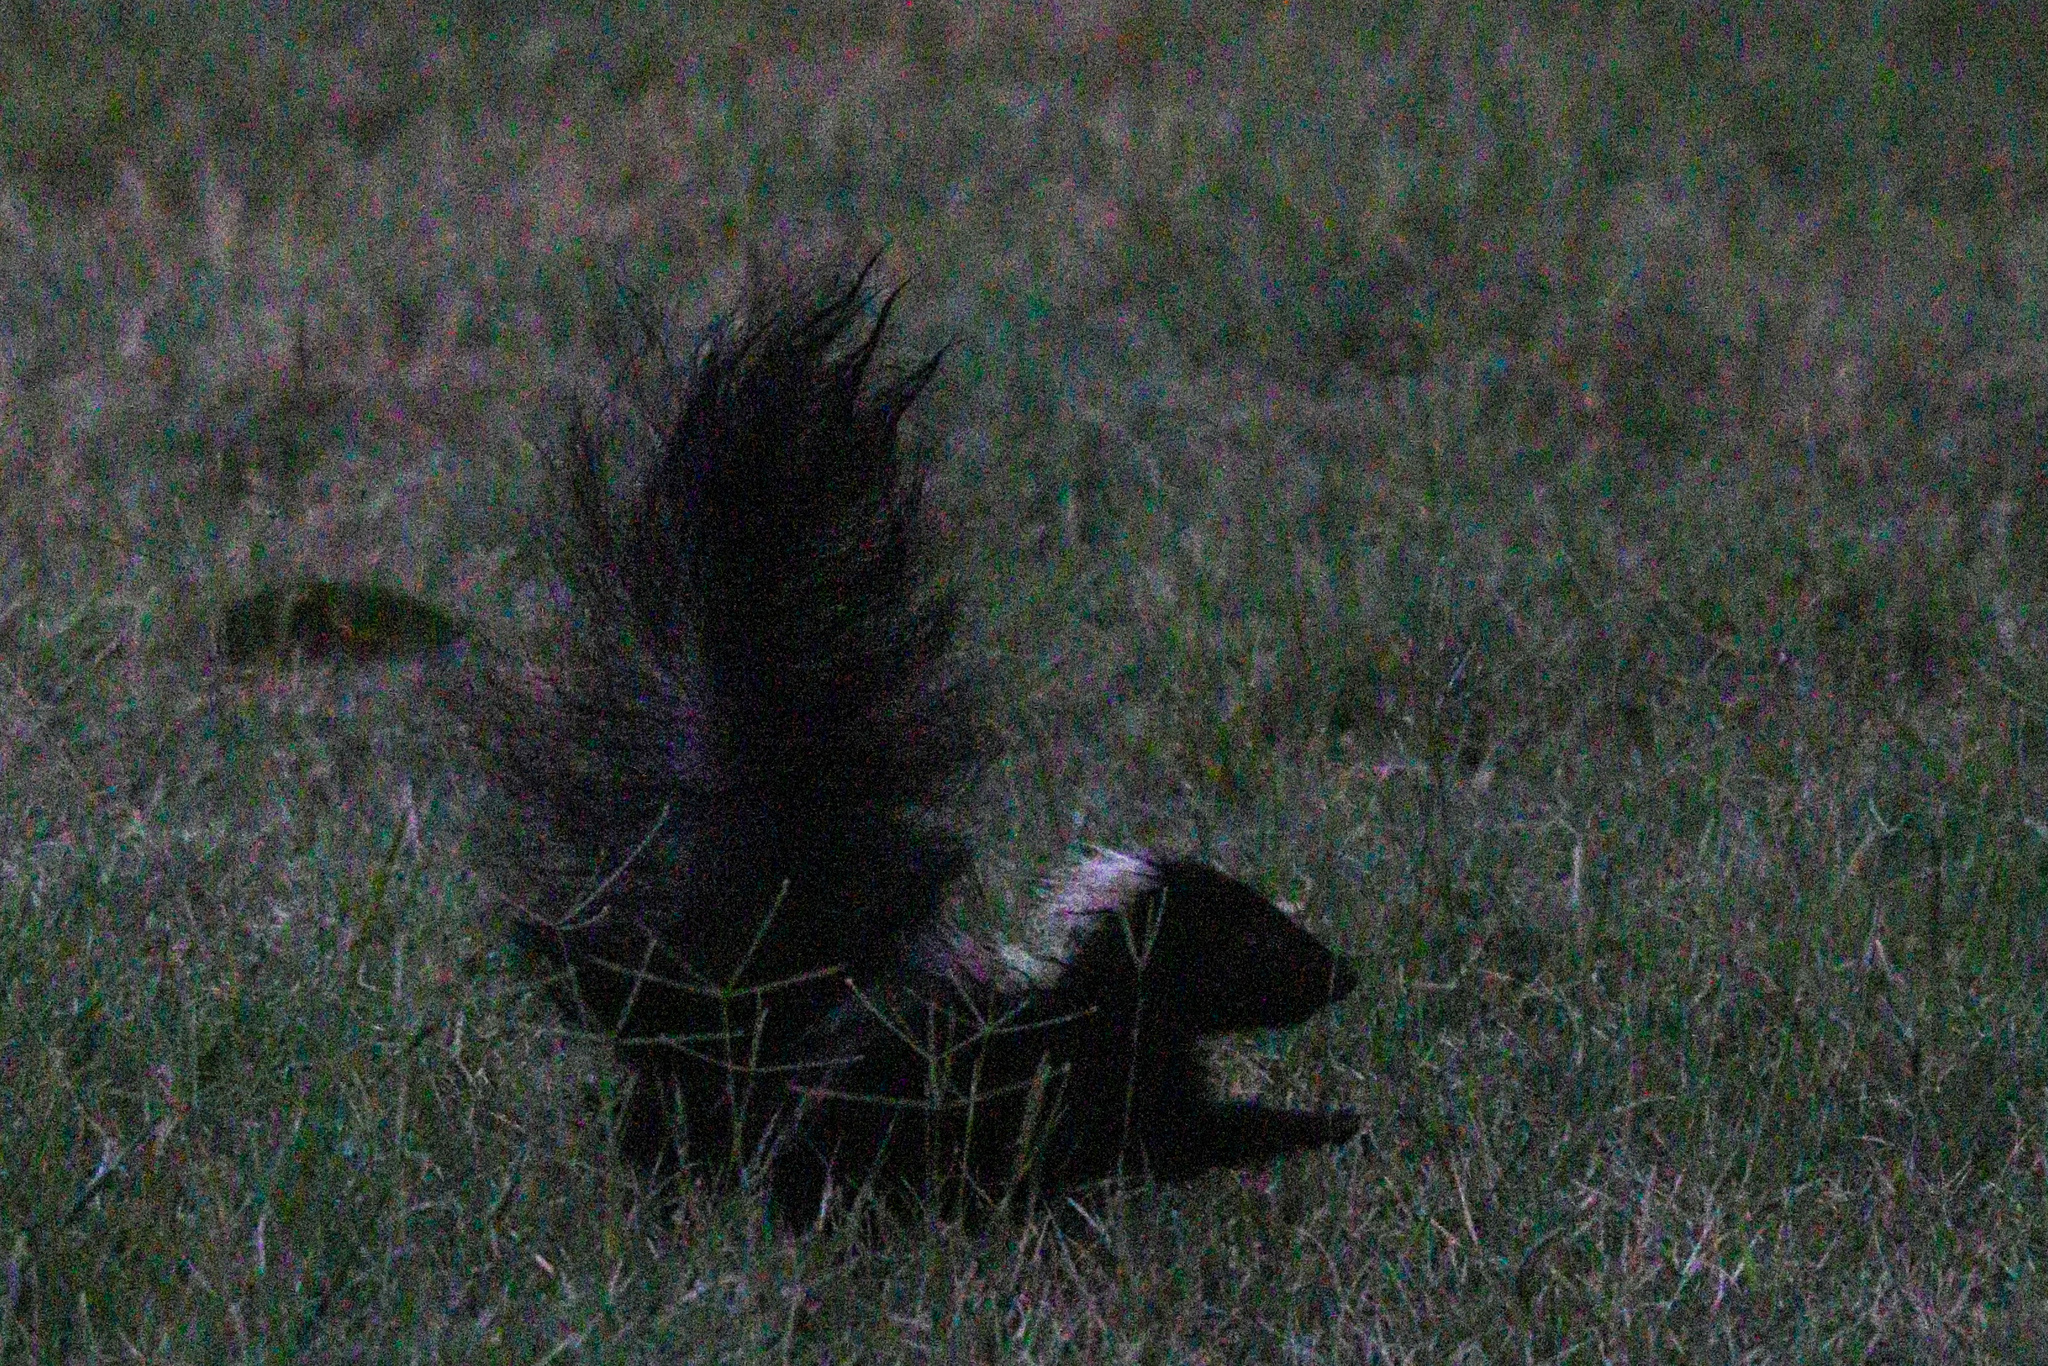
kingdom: Animalia
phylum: Chordata
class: Mammalia
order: Carnivora
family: Mephitidae
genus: Mephitis
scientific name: Mephitis mephitis
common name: Striped skunk
